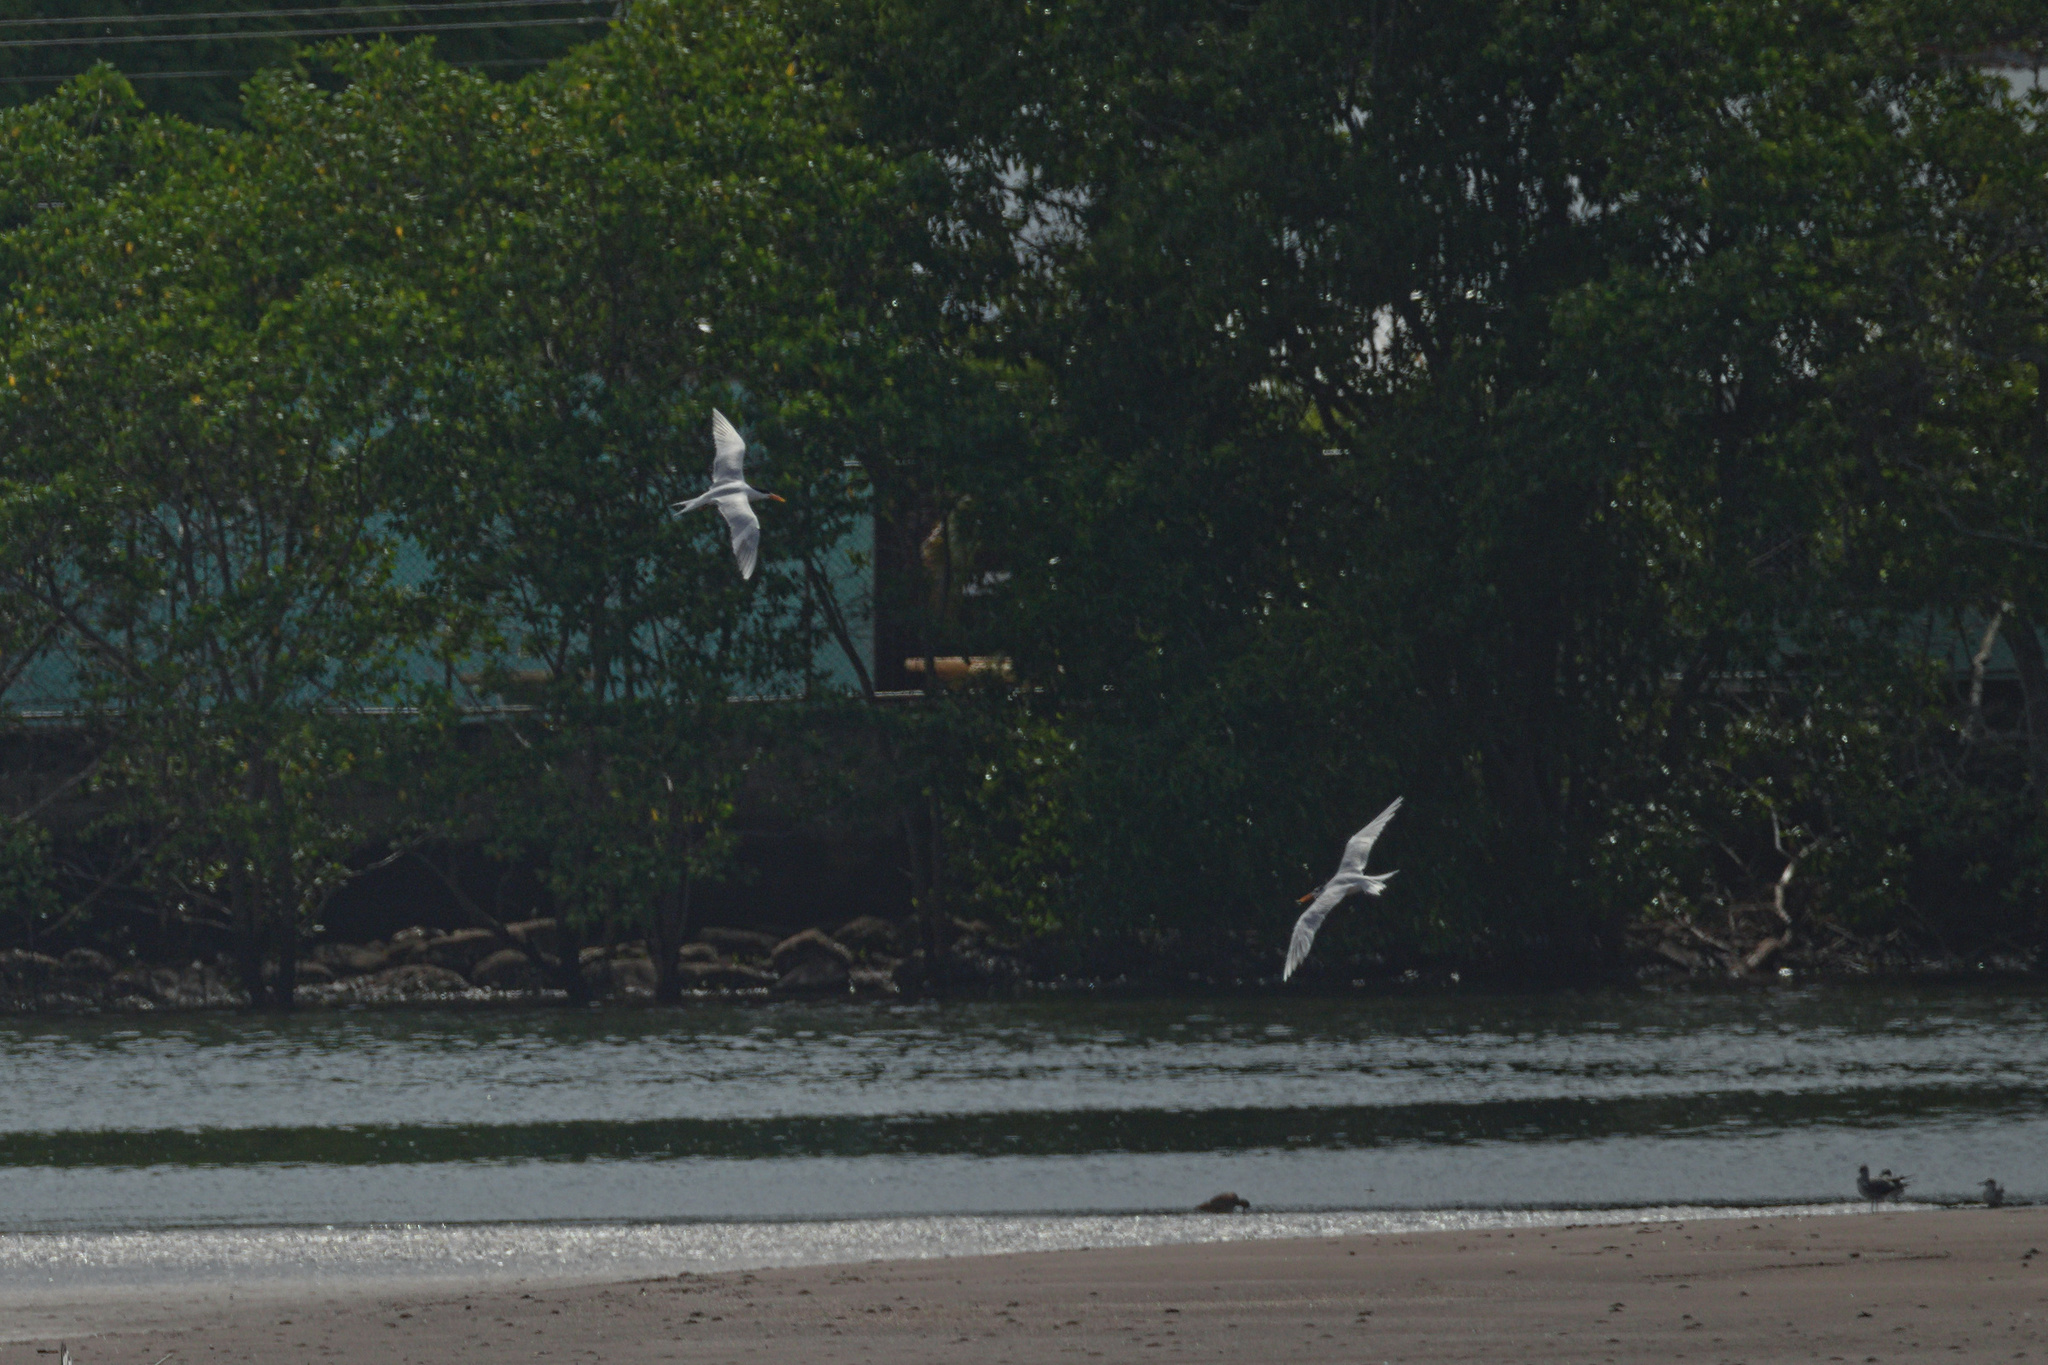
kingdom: Animalia
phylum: Chordata
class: Aves
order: Charadriiformes
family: Laridae
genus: Thalasseus
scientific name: Thalasseus maximus
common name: Royal tern
